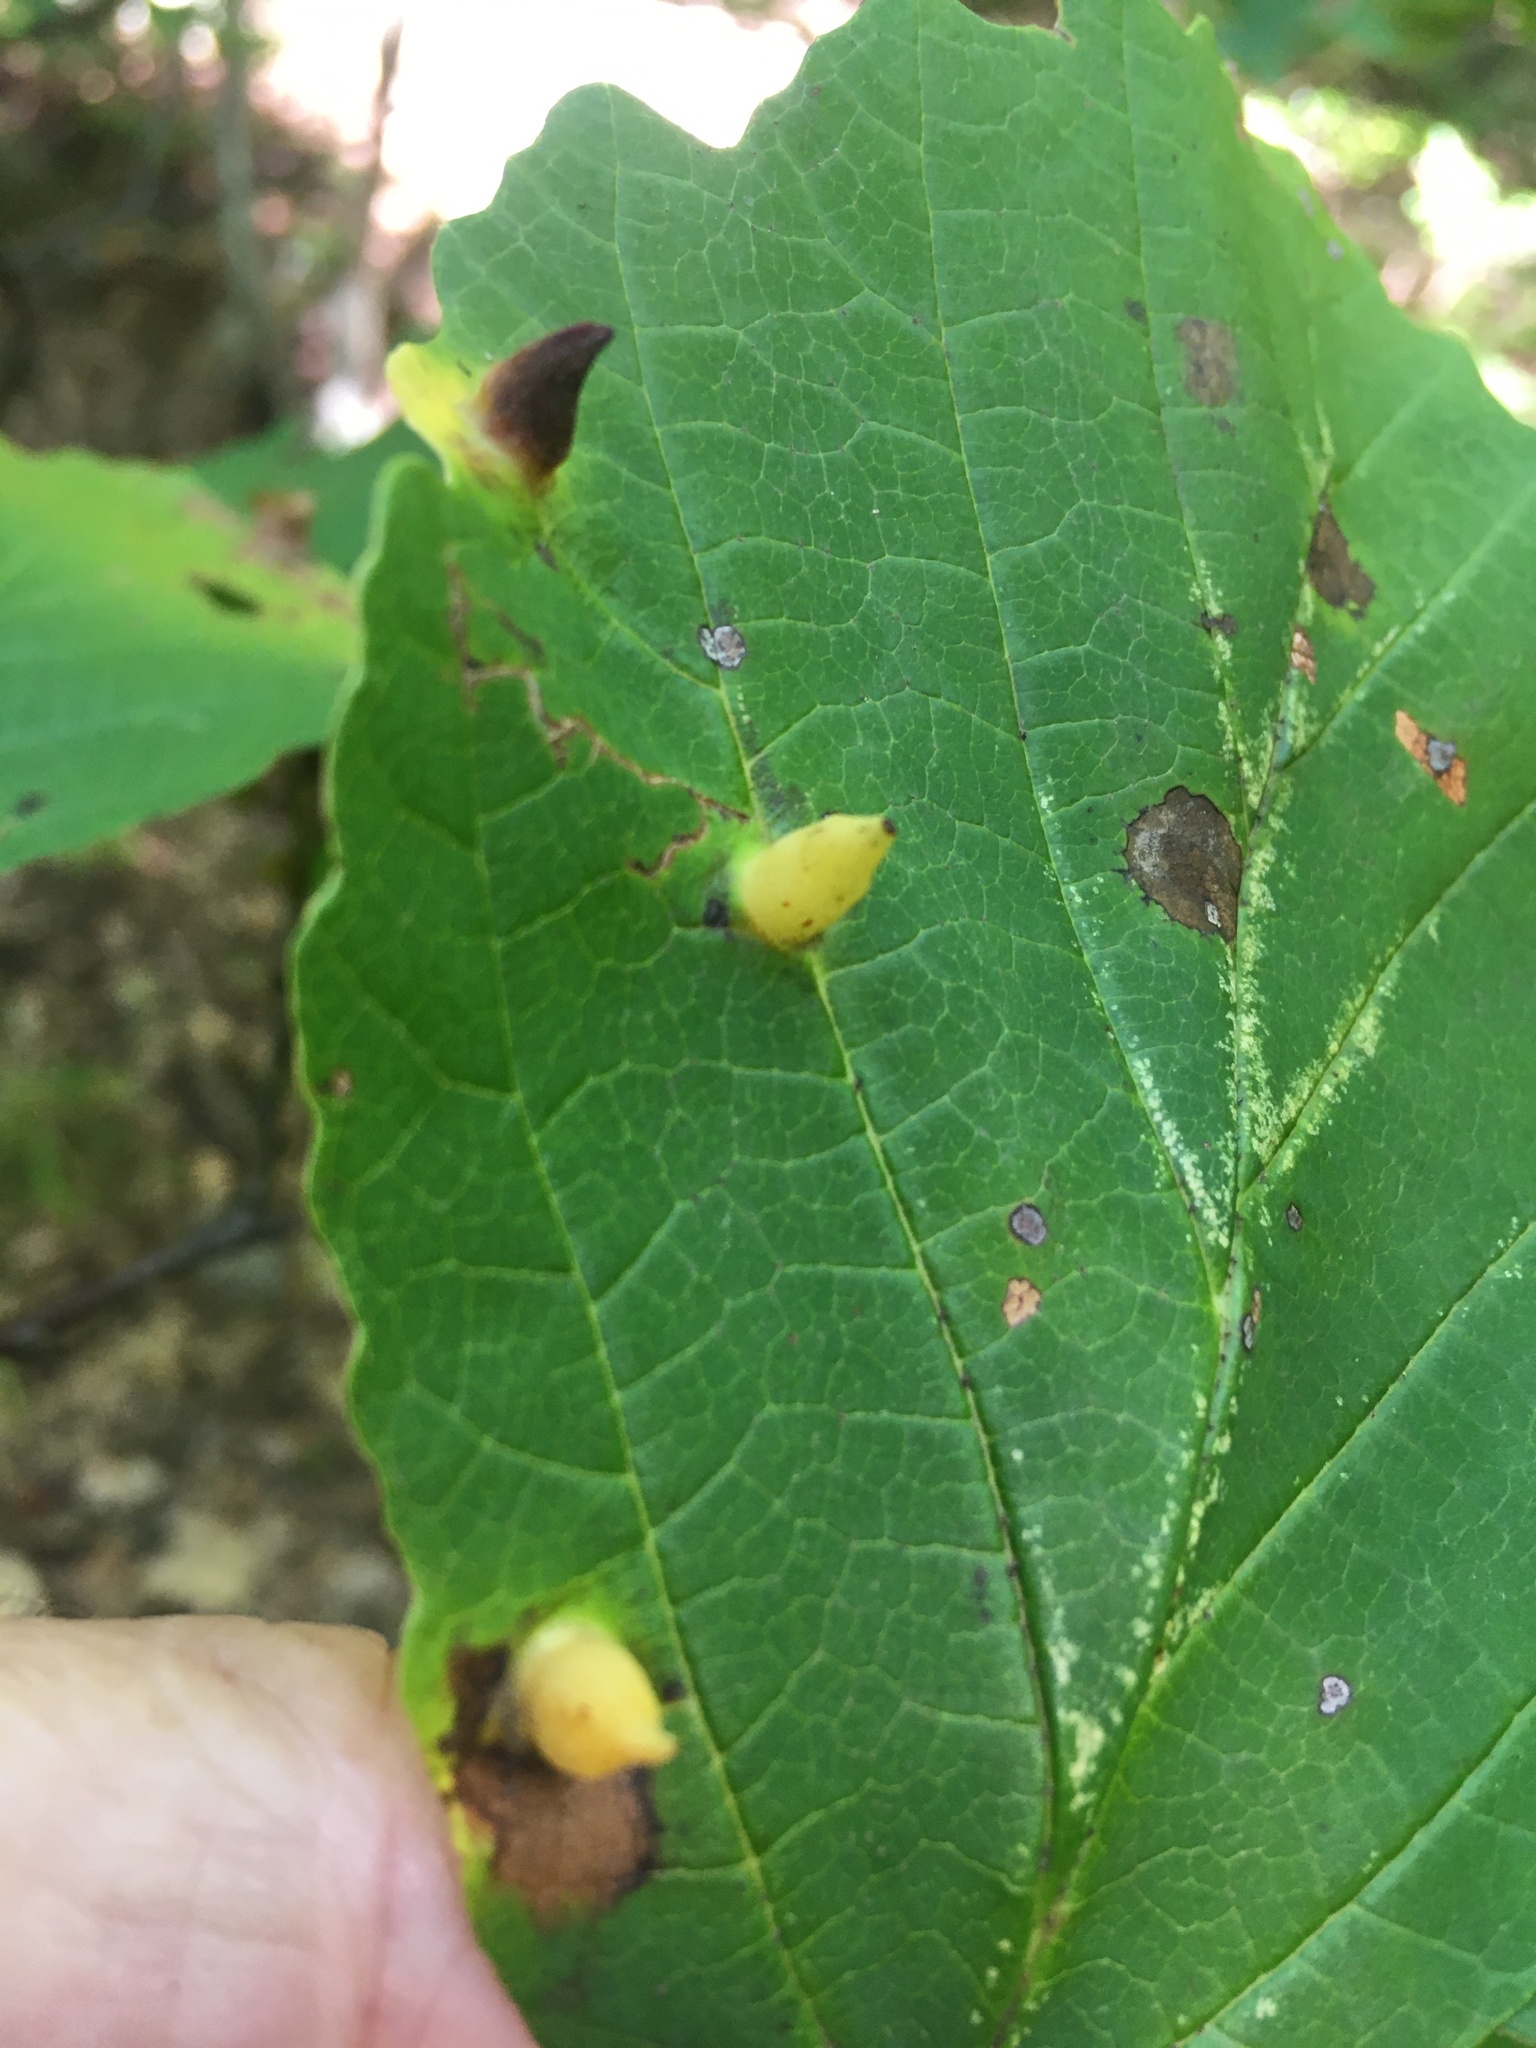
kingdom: Animalia
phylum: Arthropoda
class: Insecta
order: Hemiptera
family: Aphididae
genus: Hormaphis
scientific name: Hormaphis hamamelidis
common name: Witch-hazel cone gall aphid
